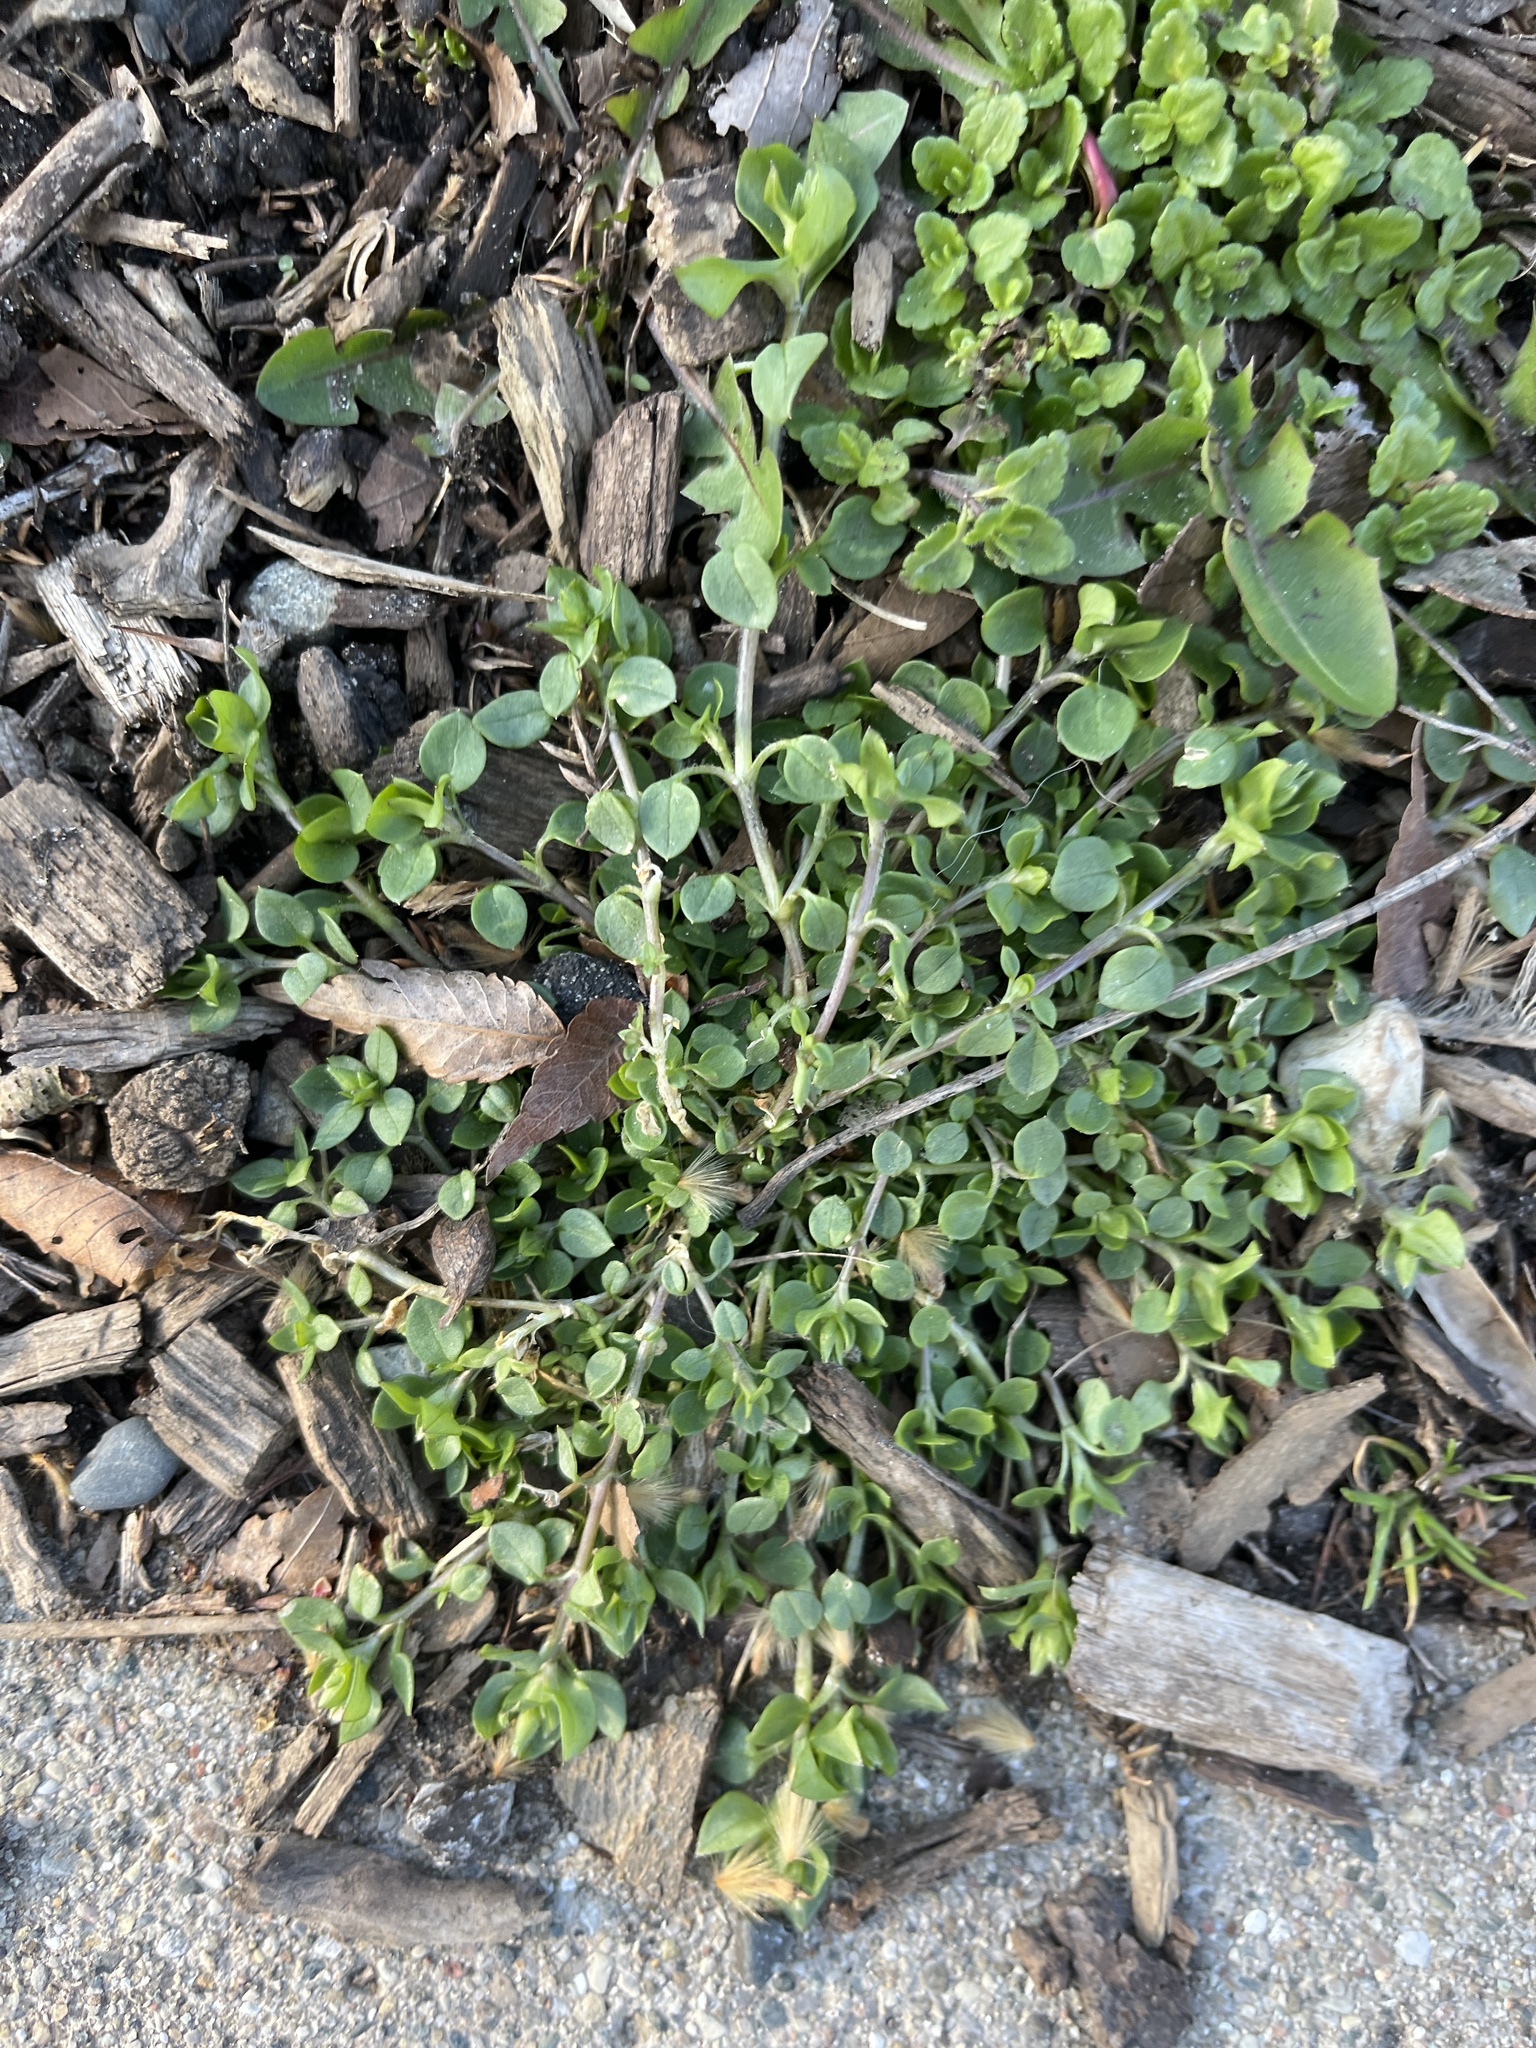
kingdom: Plantae
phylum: Tracheophyta
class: Magnoliopsida
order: Caryophyllales
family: Caryophyllaceae
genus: Stellaria
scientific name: Stellaria media
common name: Common chickweed
